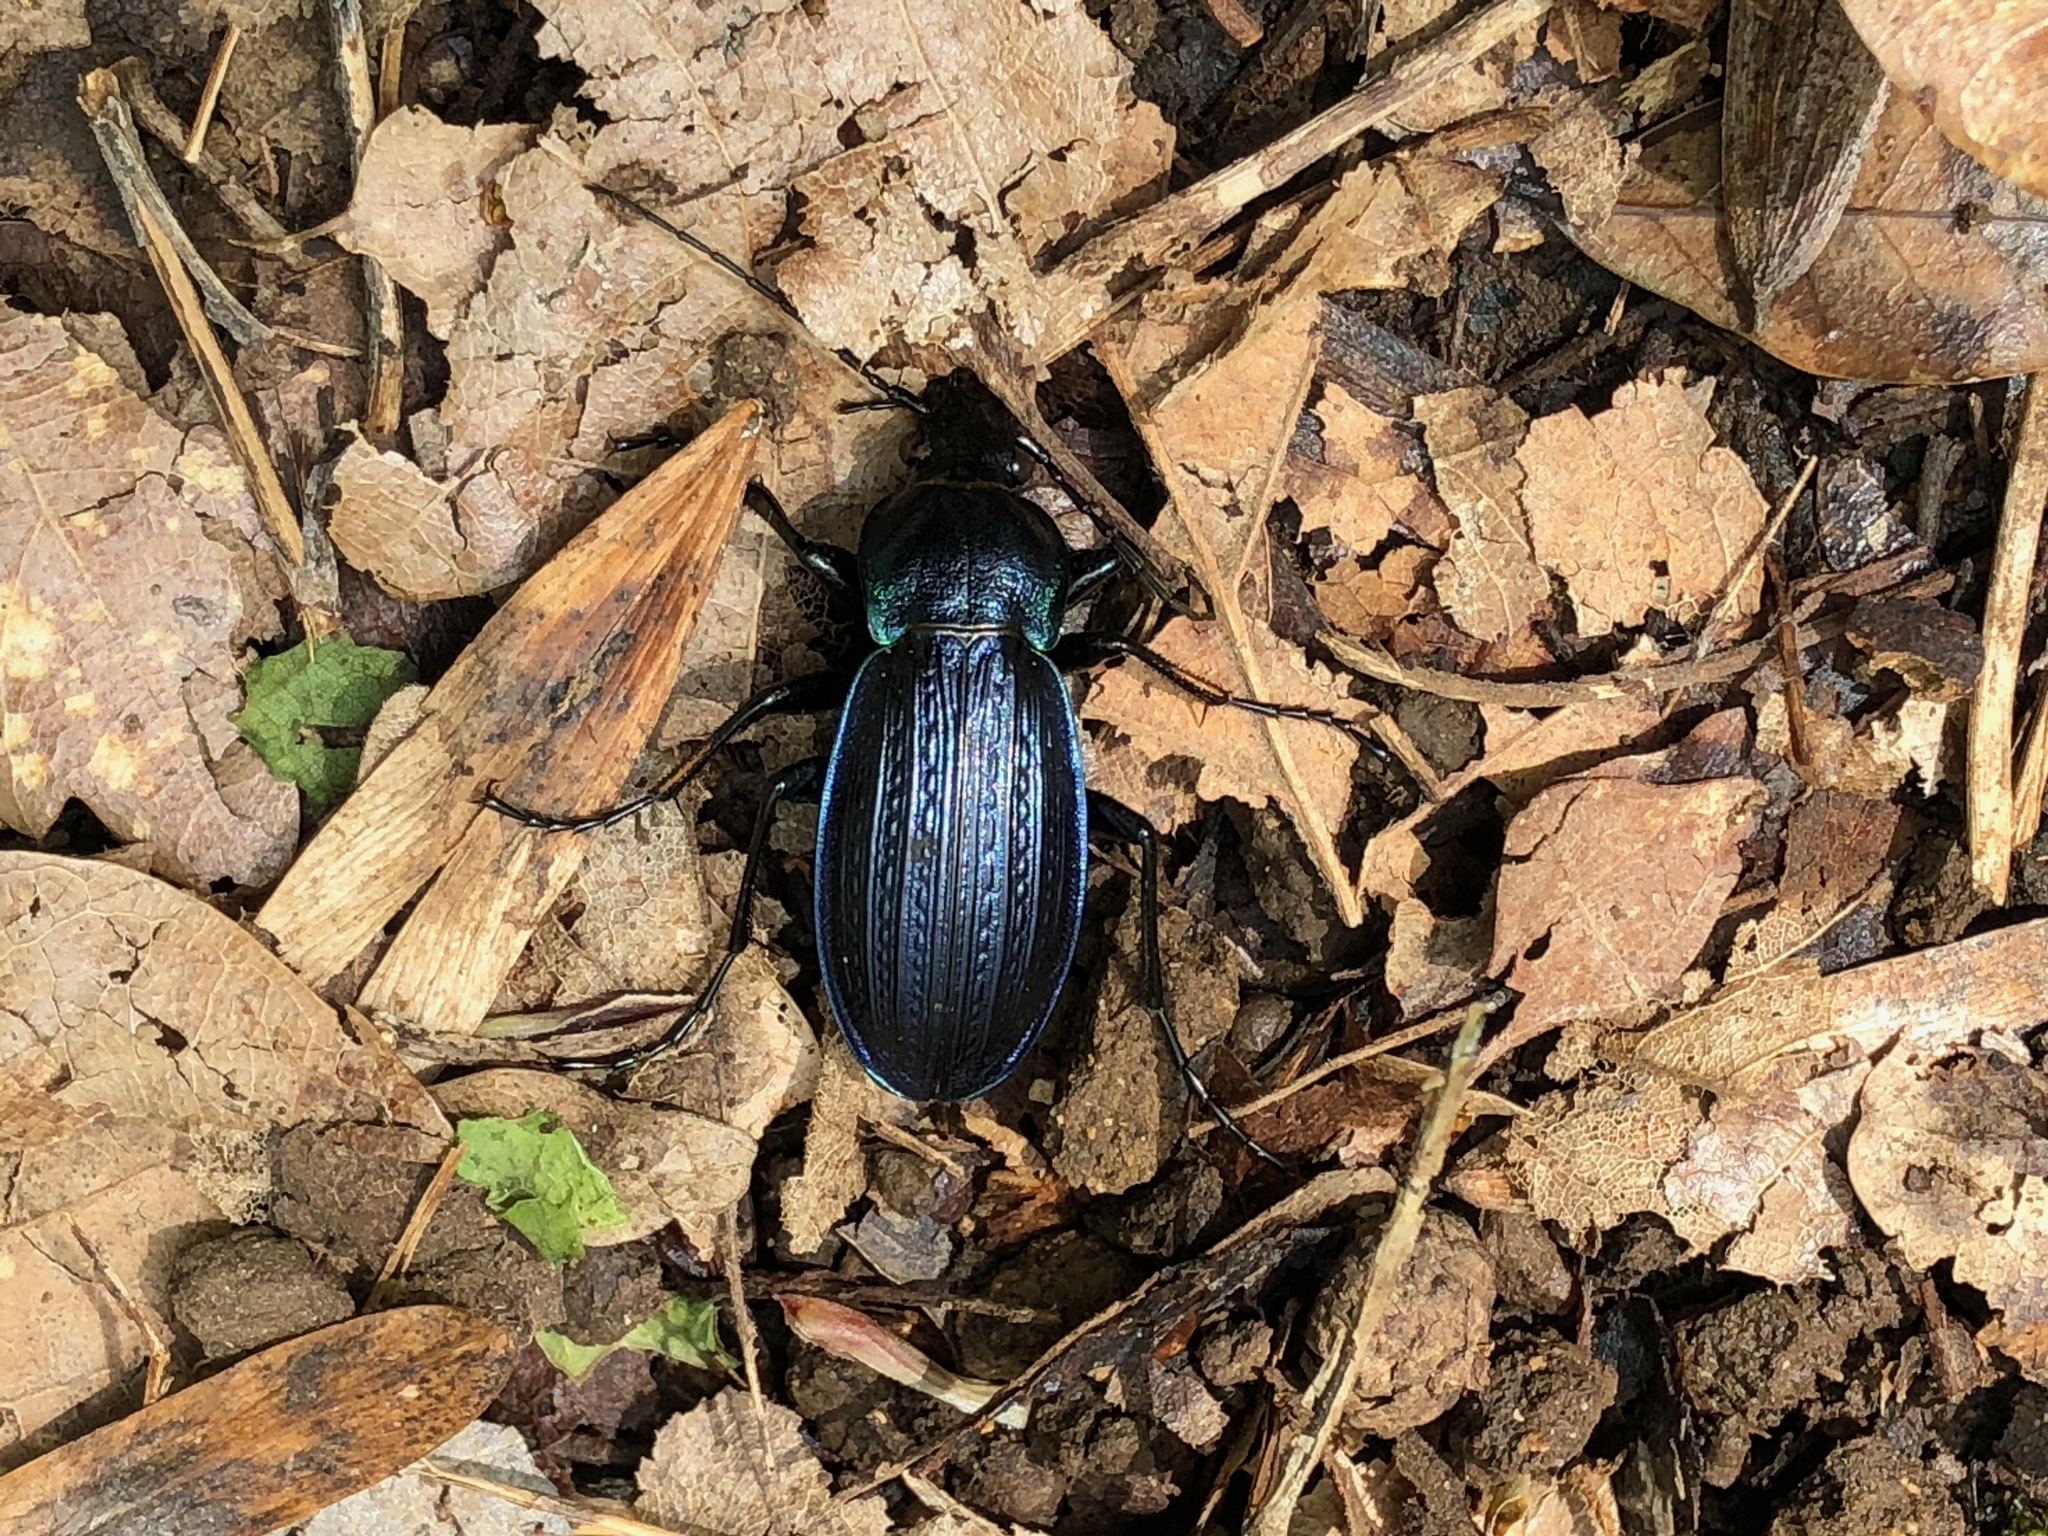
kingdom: Animalia
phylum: Arthropoda
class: Insecta
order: Coleoptera
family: Carabidae
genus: Carabus
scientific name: Carabus monilis
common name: Necklace ground beetle
